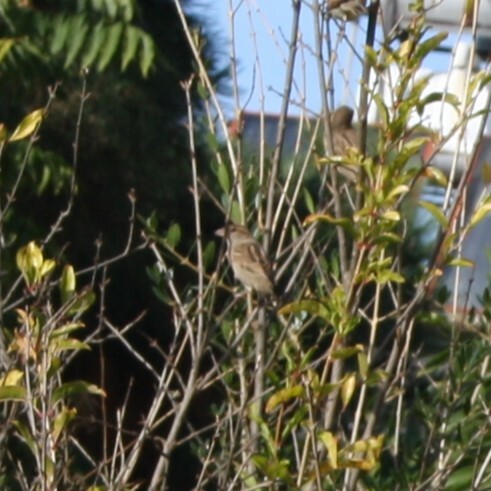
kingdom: Animalia
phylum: Chordata
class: Aves
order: Passeriformes
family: Passeridae
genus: Passer
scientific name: Passer domesticus
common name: House sparrow
